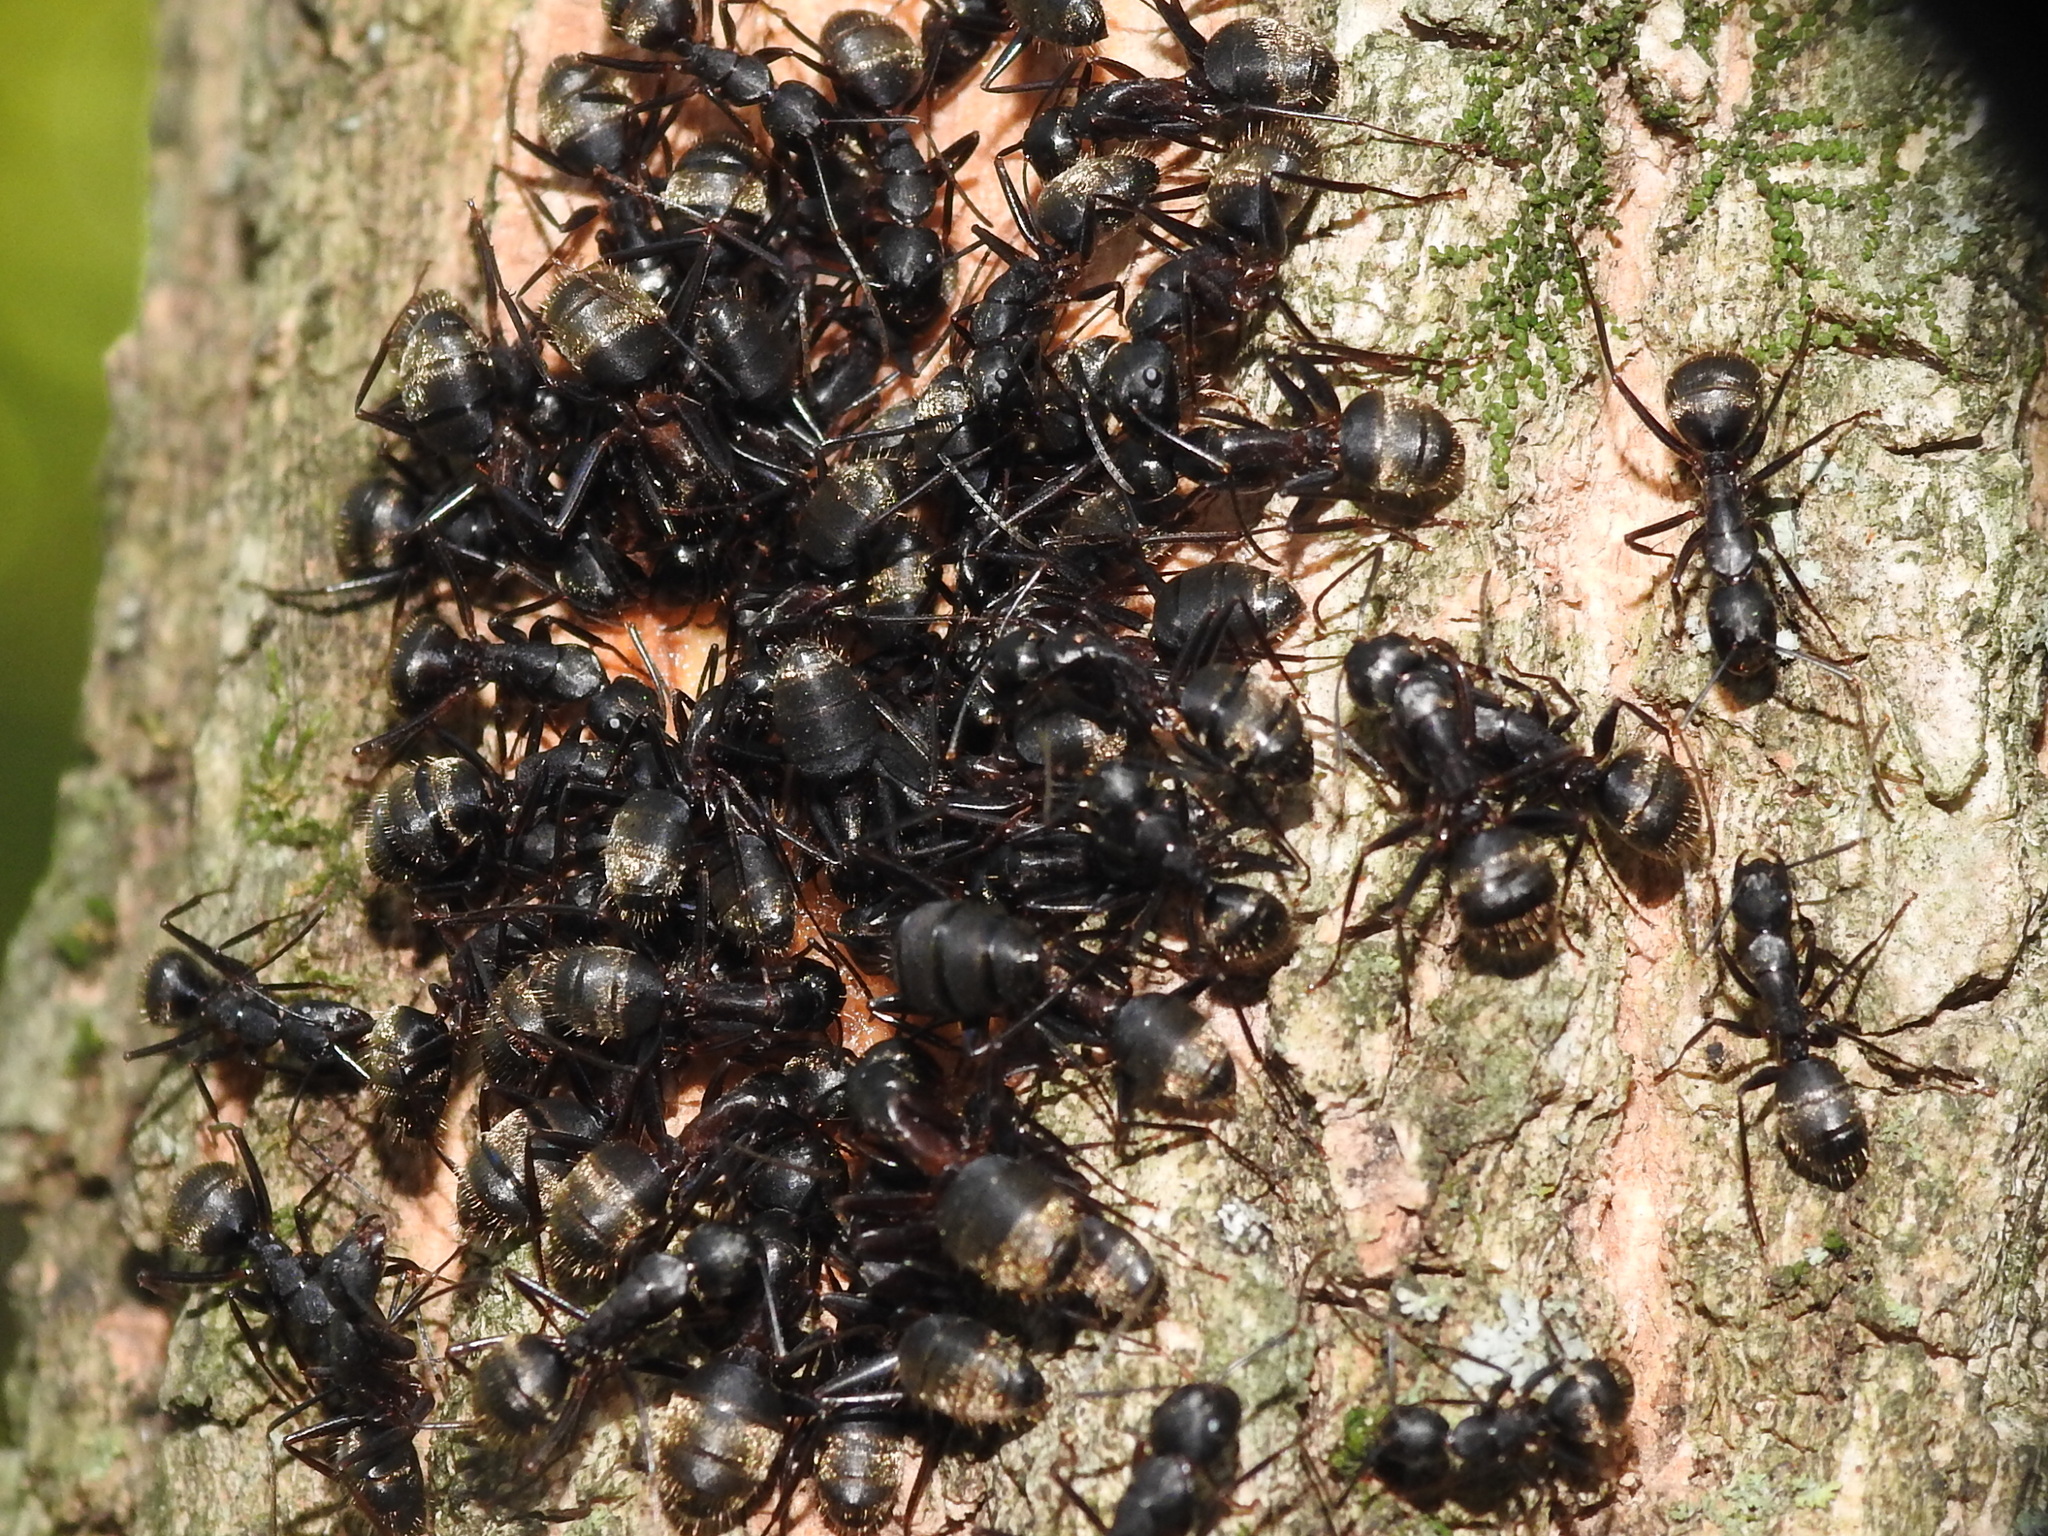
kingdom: Animalia
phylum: Arthropoda
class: Insecta
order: Hymenoptera
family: Formicidae
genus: Camponotus
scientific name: Camponotus pennsylvanicus
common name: Black carpenter ant
